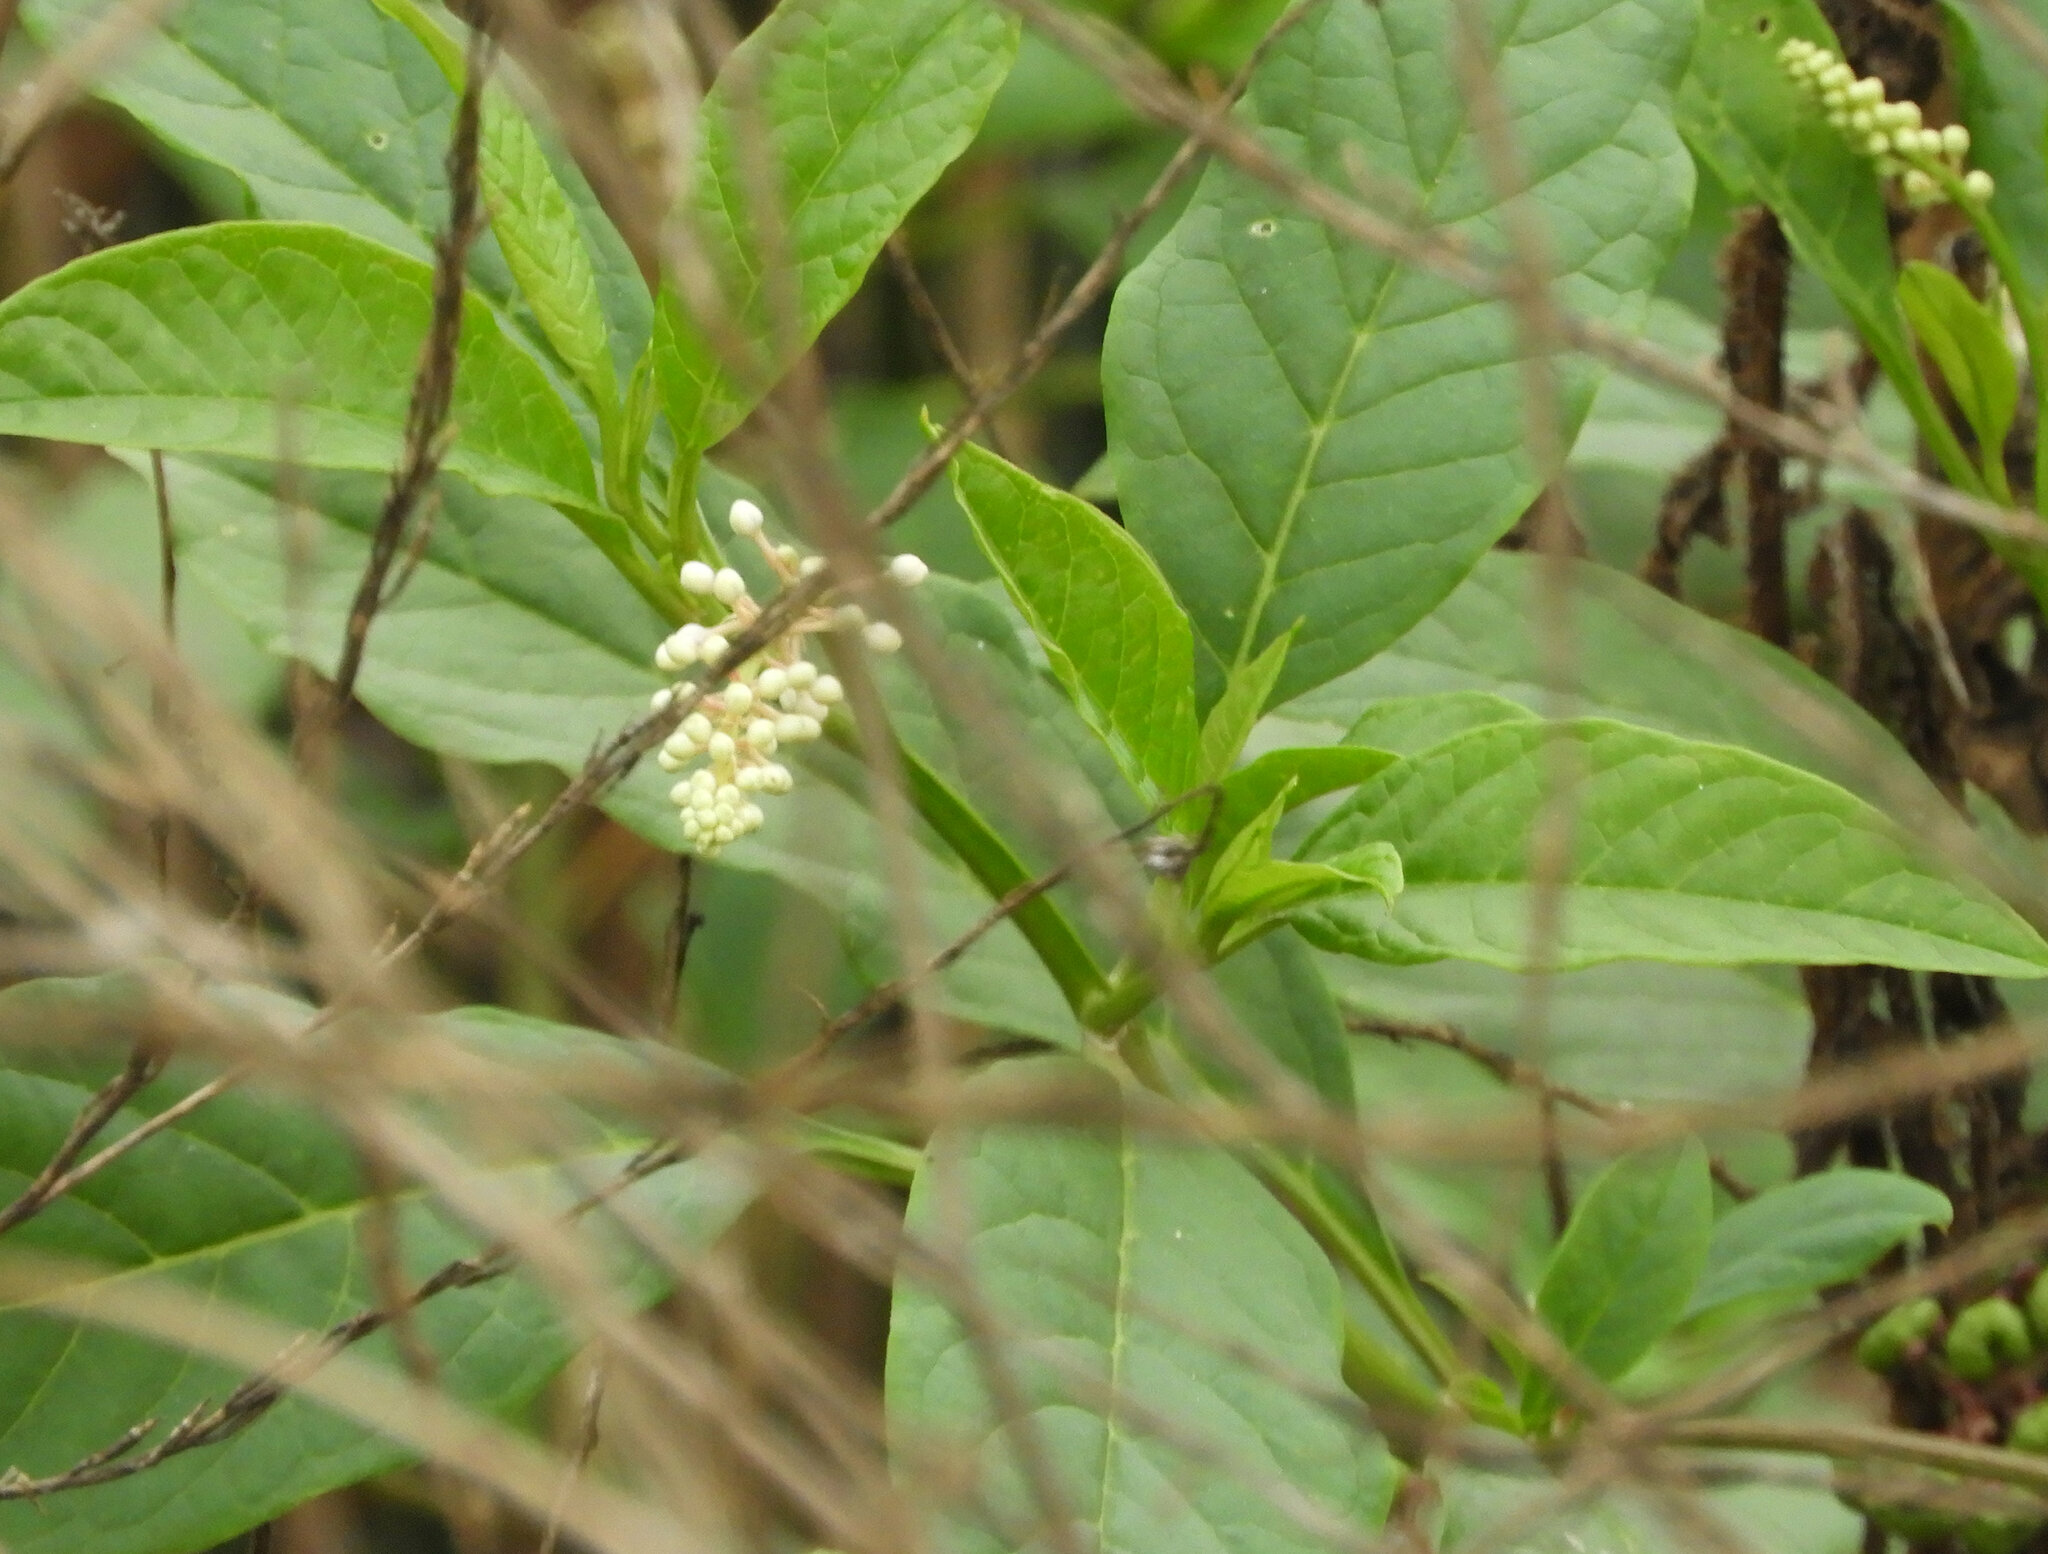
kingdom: Plantae
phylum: Tracheophyta
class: Magnoliopsida
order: Caryophyllales
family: Phytolaccaceae
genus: Phytolacca
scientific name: Phytolacca americana
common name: American pokeweed
